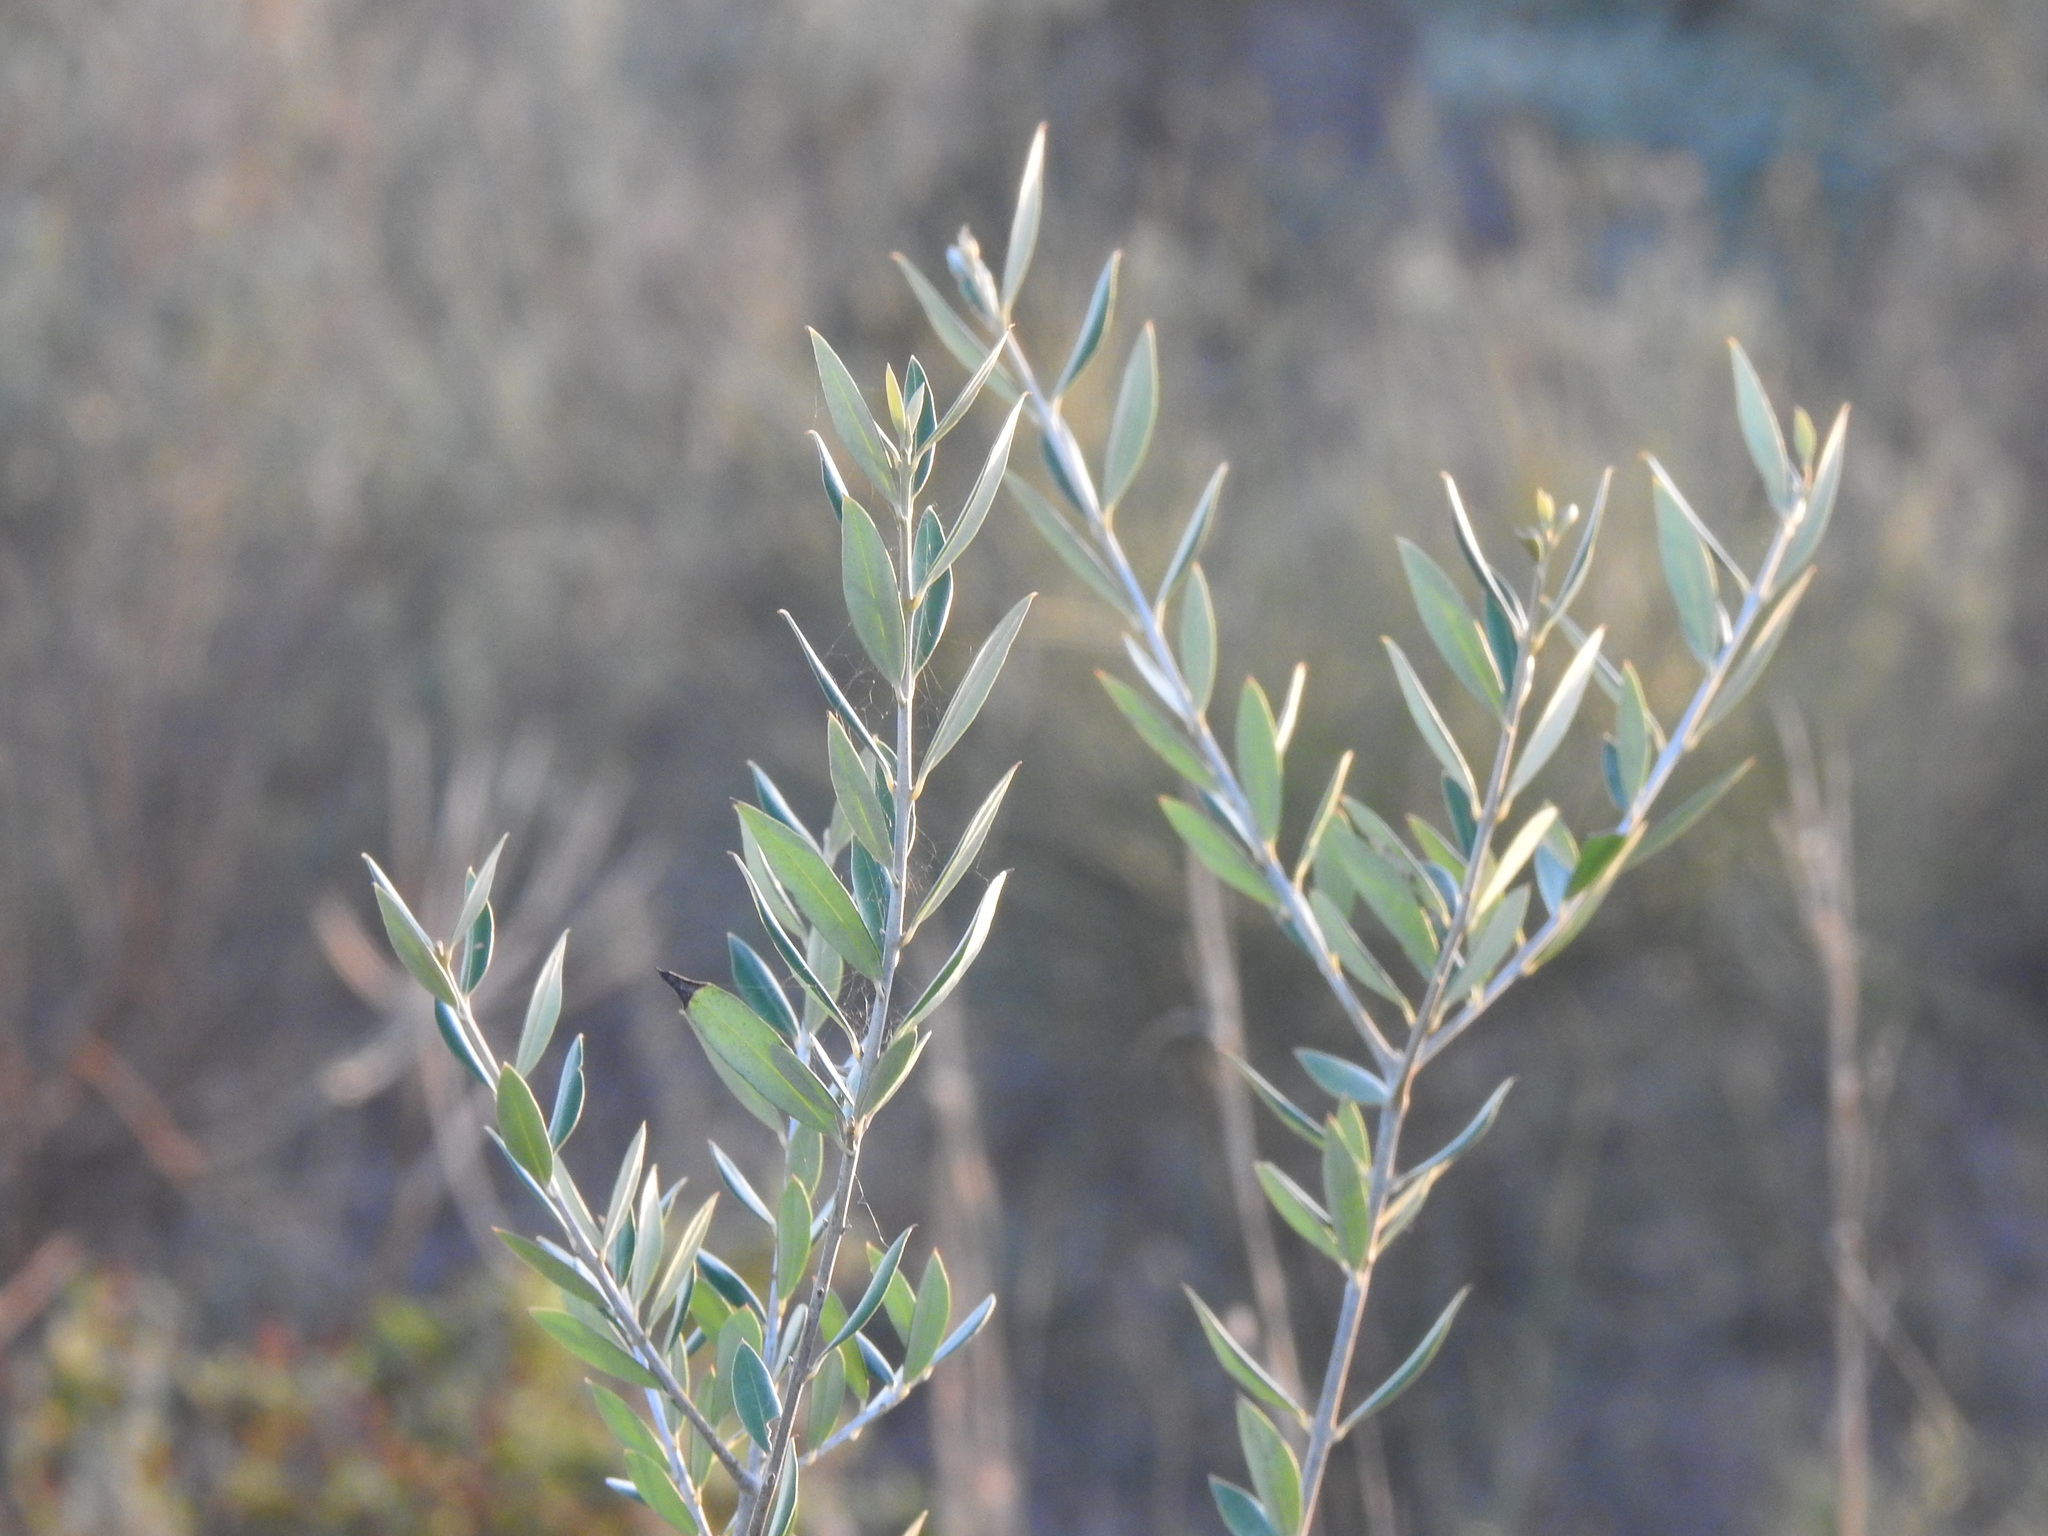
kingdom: Plantae
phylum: Tracheophyta
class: Magnoliopsida
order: Lamiales
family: Oleaceae
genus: Olea
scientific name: Olea europaea
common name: Olive
